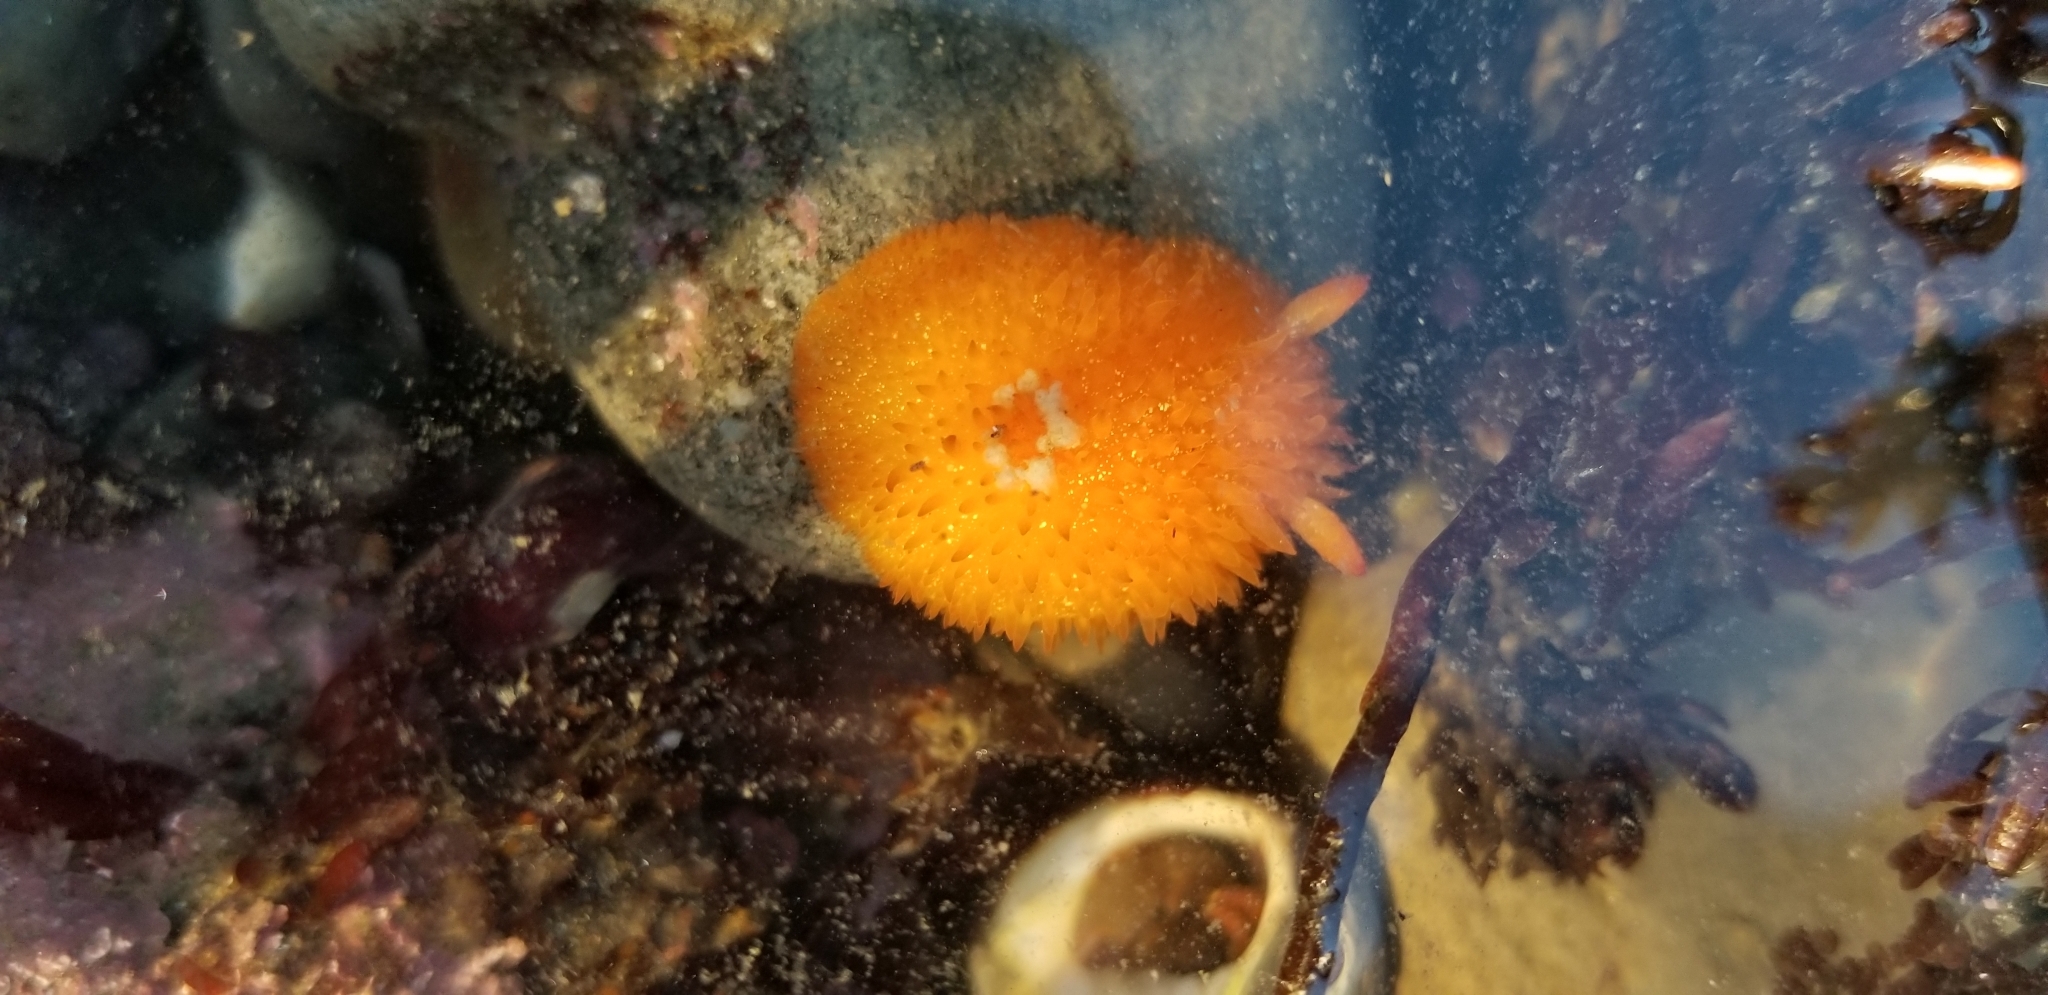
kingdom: Animalia
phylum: Mollusca
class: Gastropoda
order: Nudibranchia
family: Onchidorididae
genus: Acanthodoris
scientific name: Acanthodoris lutea
